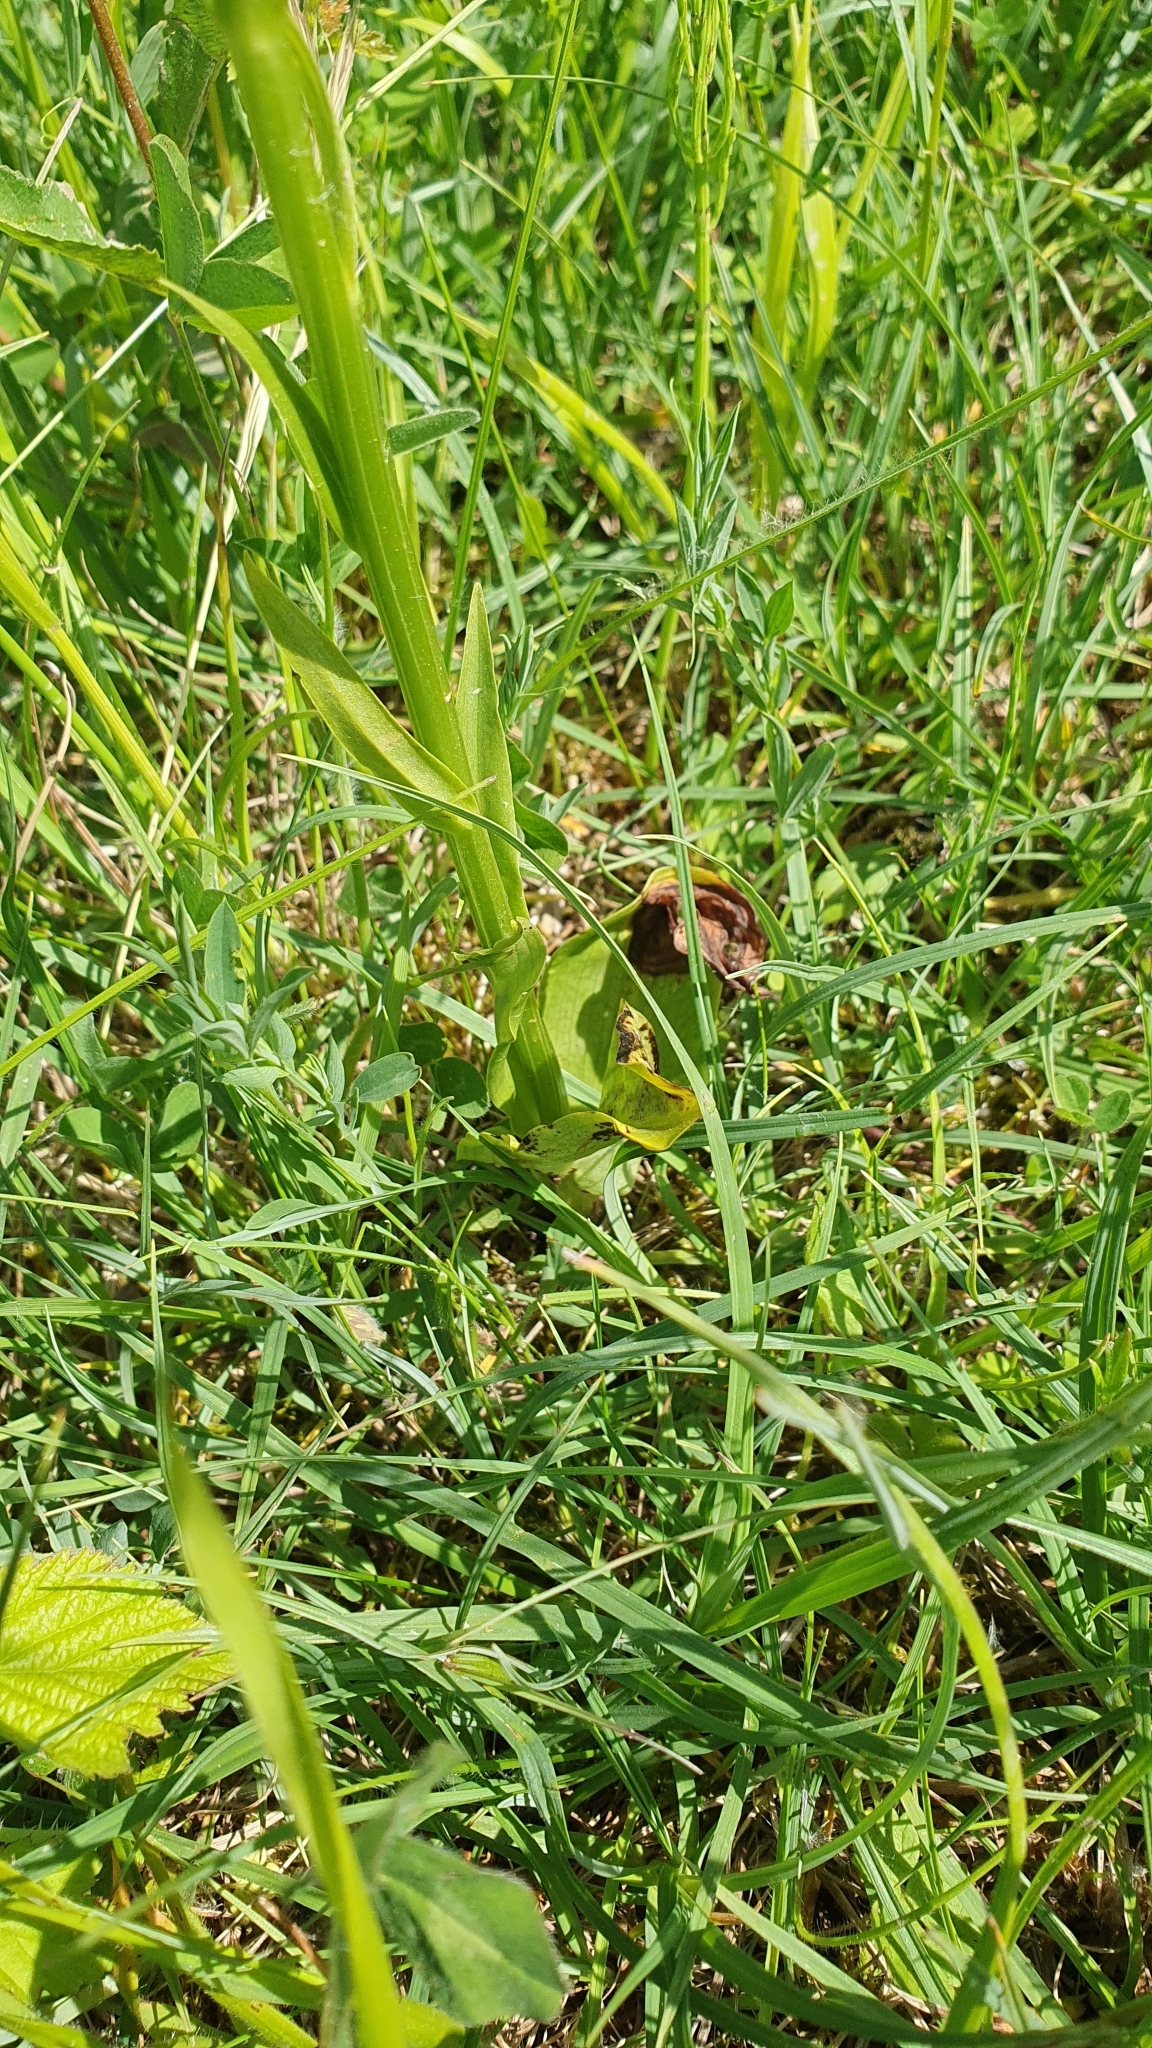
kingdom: Plantae
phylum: Tracheophyta
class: Liliopsida
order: Asparagales
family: Orchidaceae
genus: Platanthera
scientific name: Platanthera chlorantha
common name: Greater butterfly-orchid
